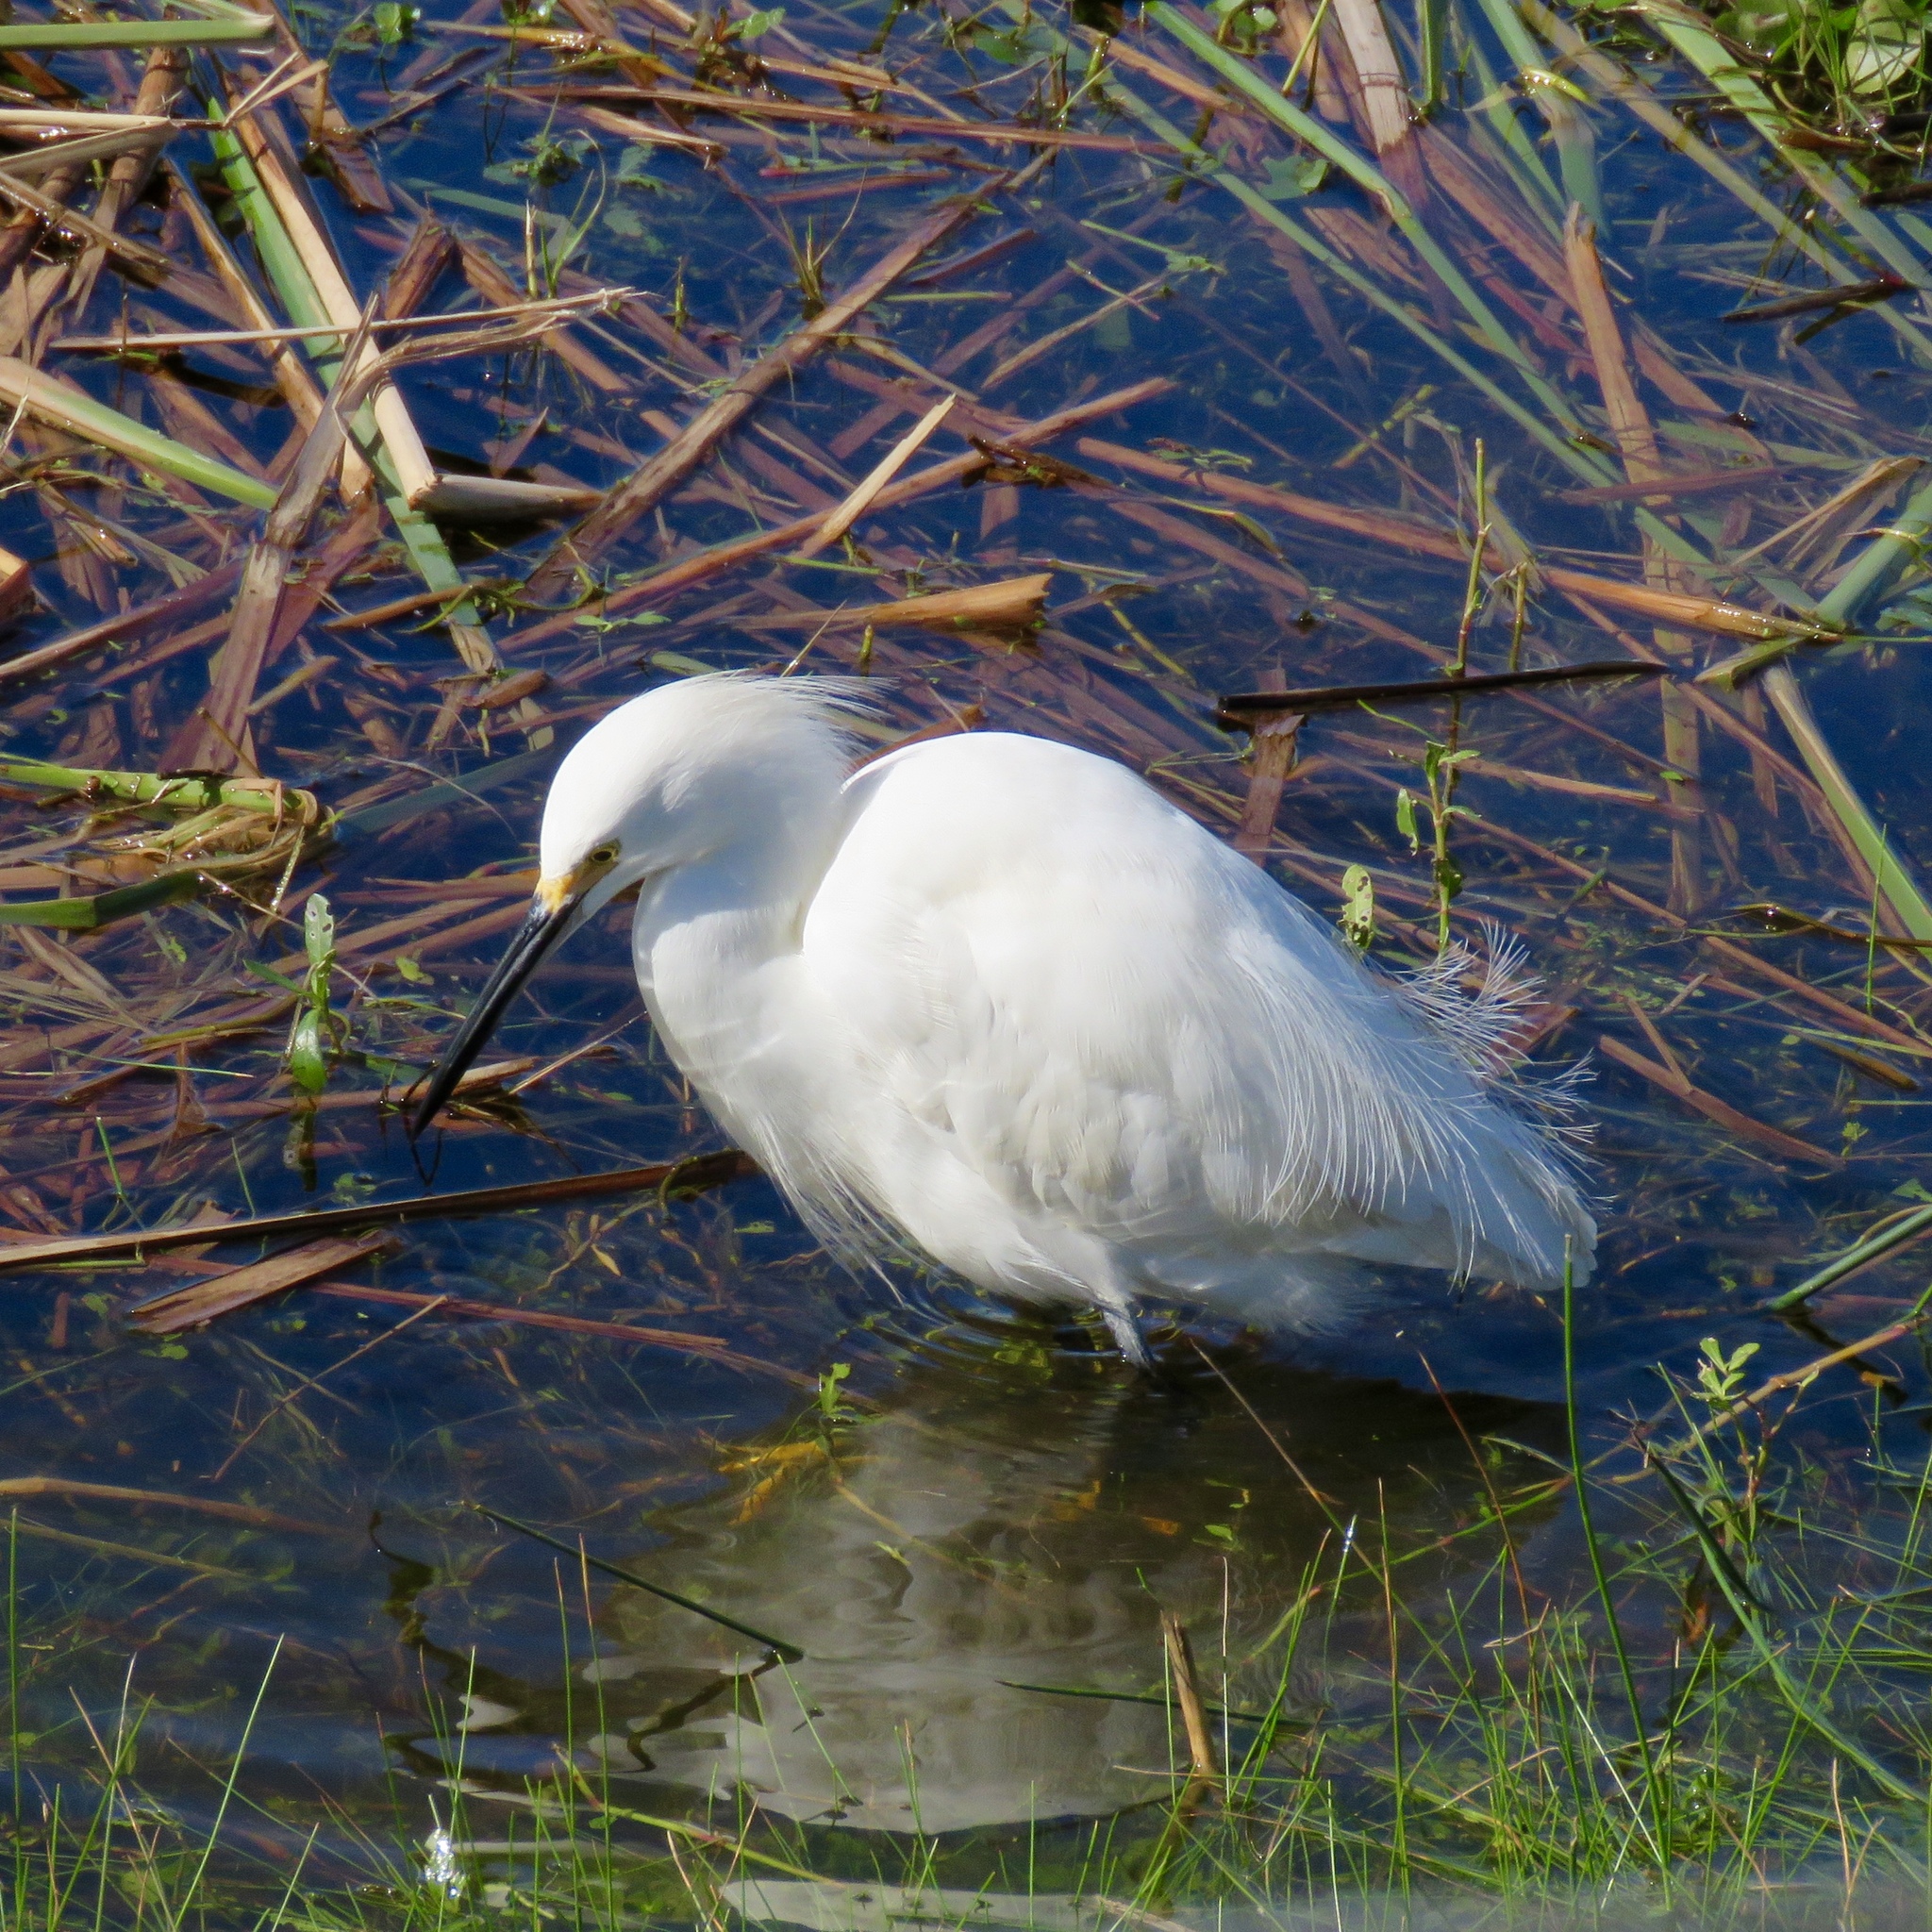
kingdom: Animalia
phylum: Chordata
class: Aves
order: Pelecaniformes
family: Ardeidae
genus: Egretta
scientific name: Egretta thula
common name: Snowy egret
